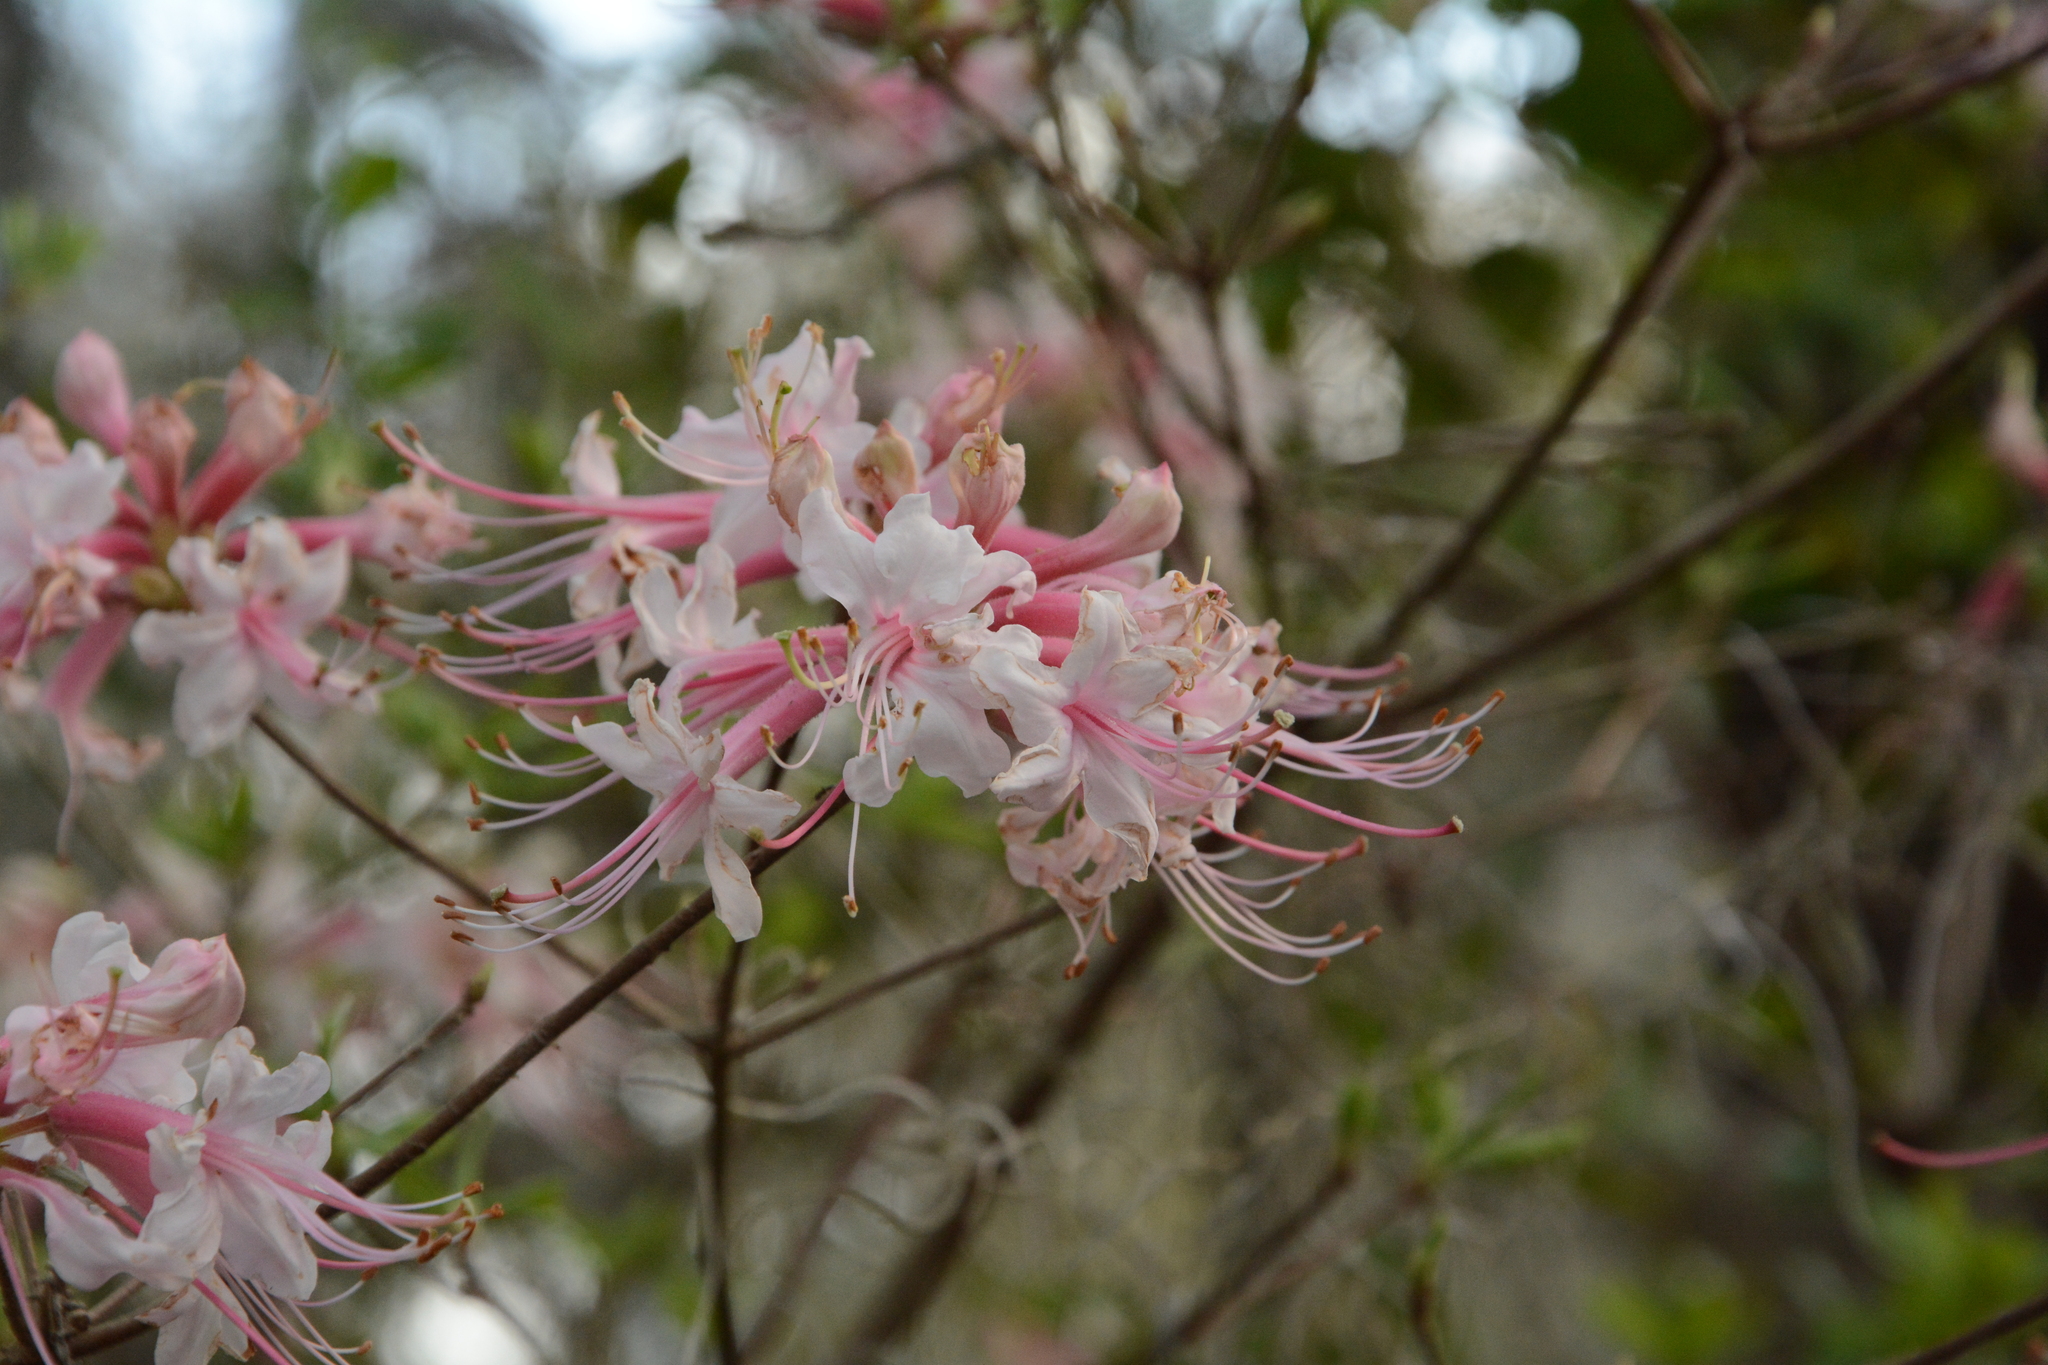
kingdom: Plantae
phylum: Tracheophyta
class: Magnoliopsida
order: Ericales
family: Ericaceae
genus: Rhododendron
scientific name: Rhododendron canescens
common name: Mountain azalea
